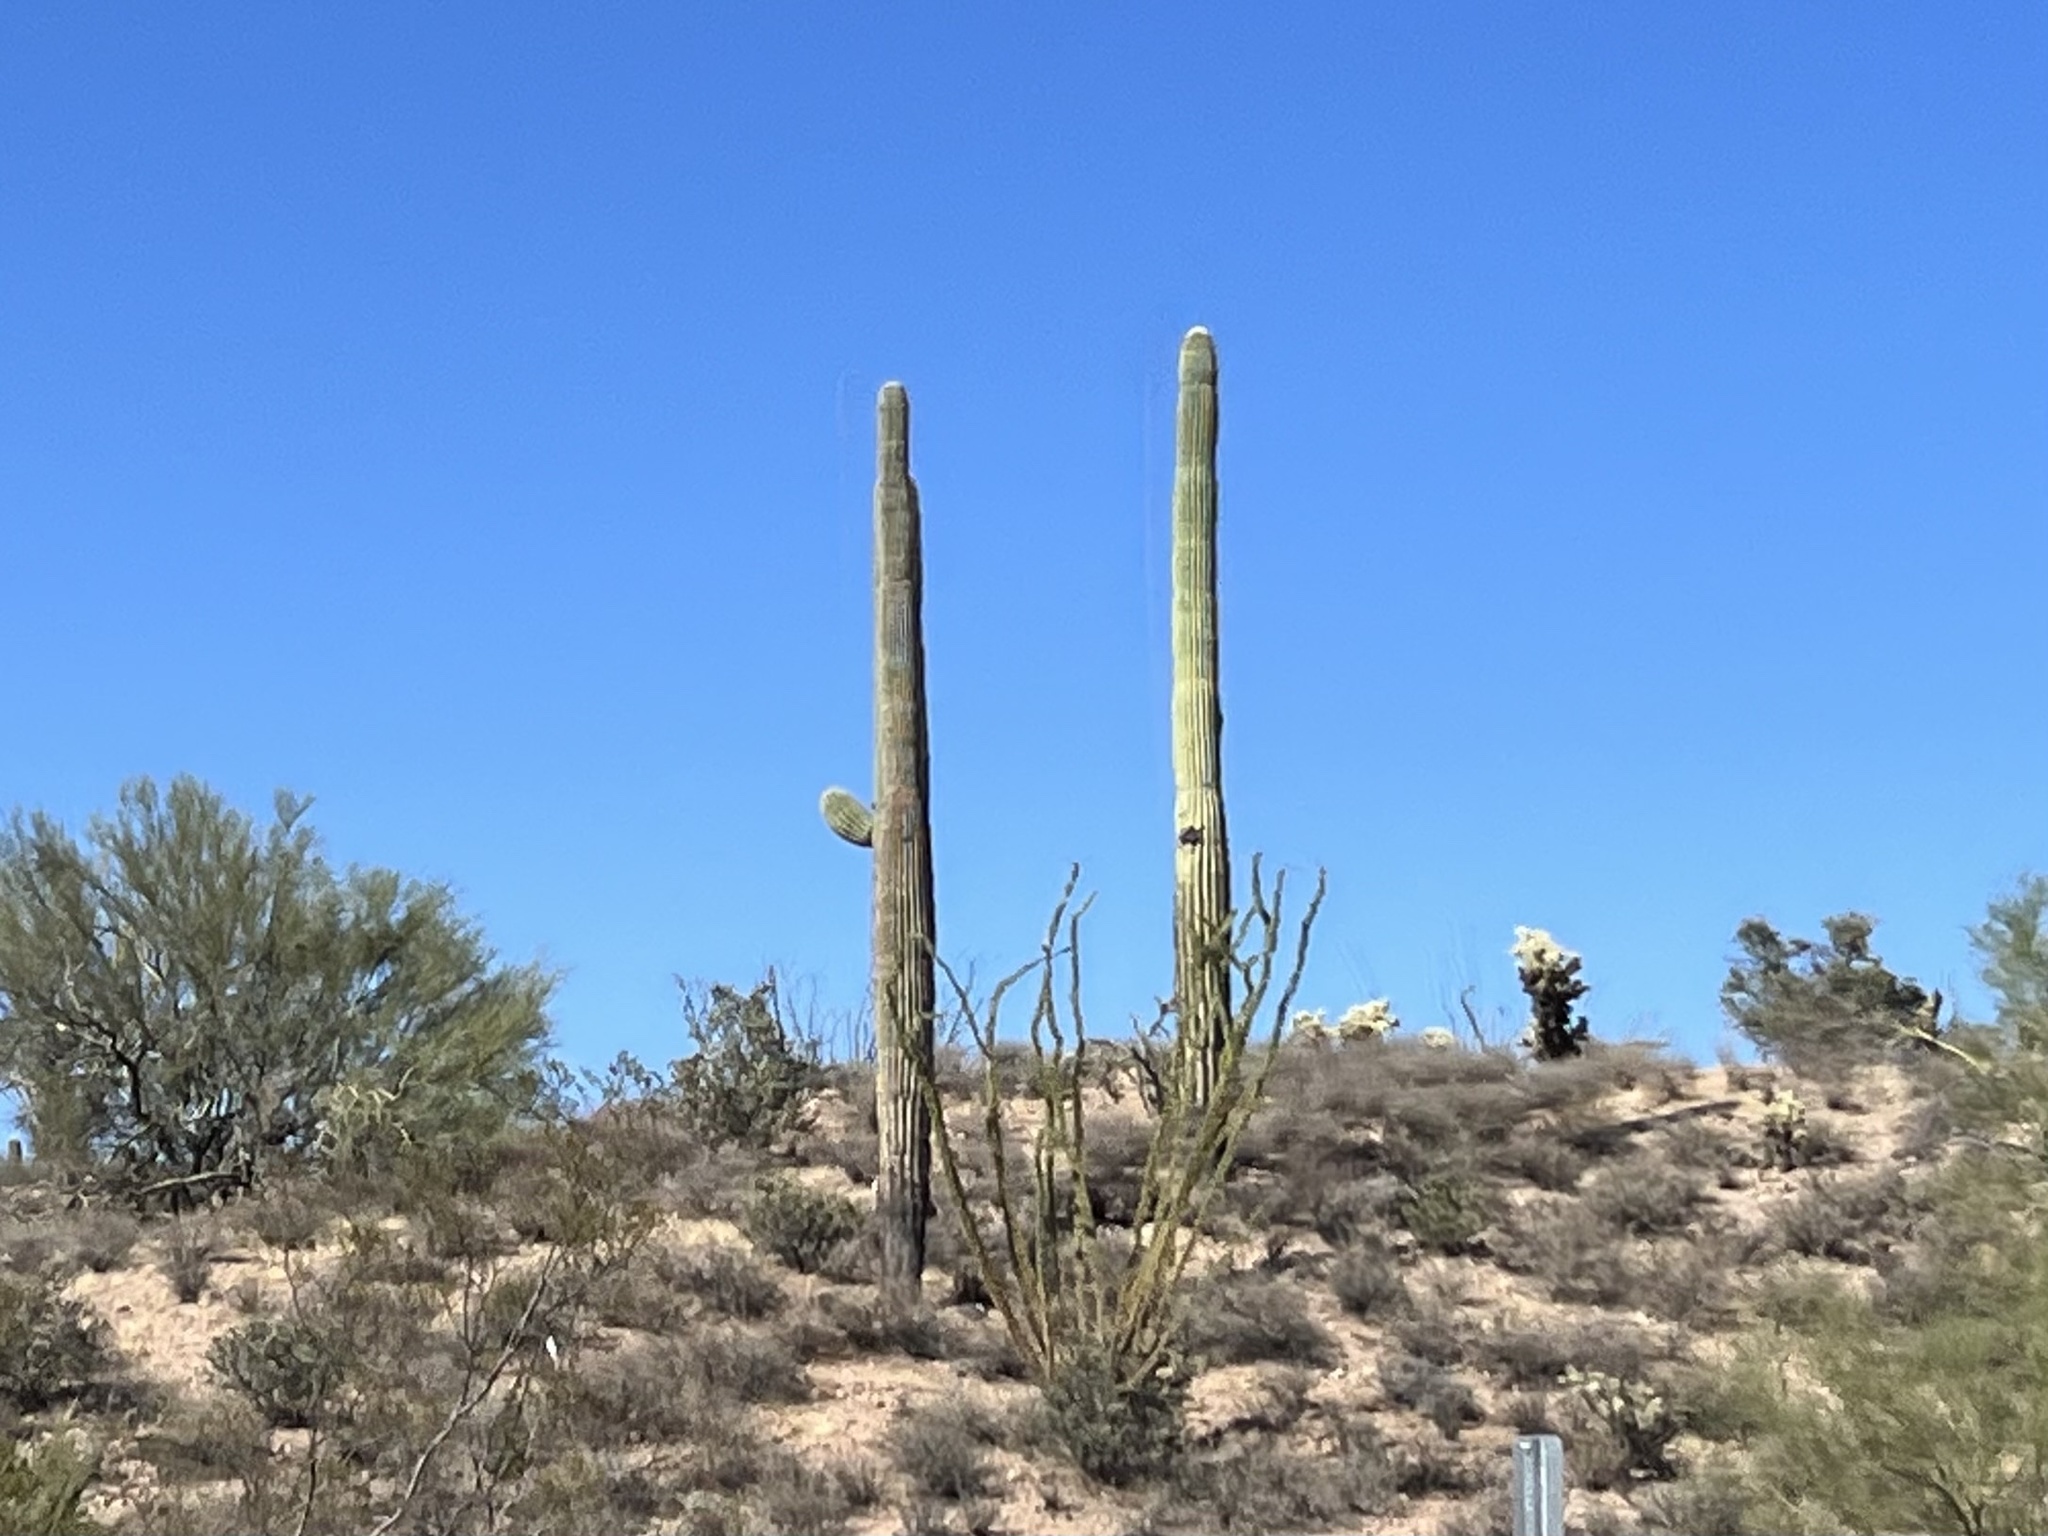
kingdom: Plantae
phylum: Tracheophyta
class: Magnoliopsida
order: Caryophyllales
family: Cactaceae
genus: Carnegiea
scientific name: Carnegiea gigantea
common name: Saguaro
